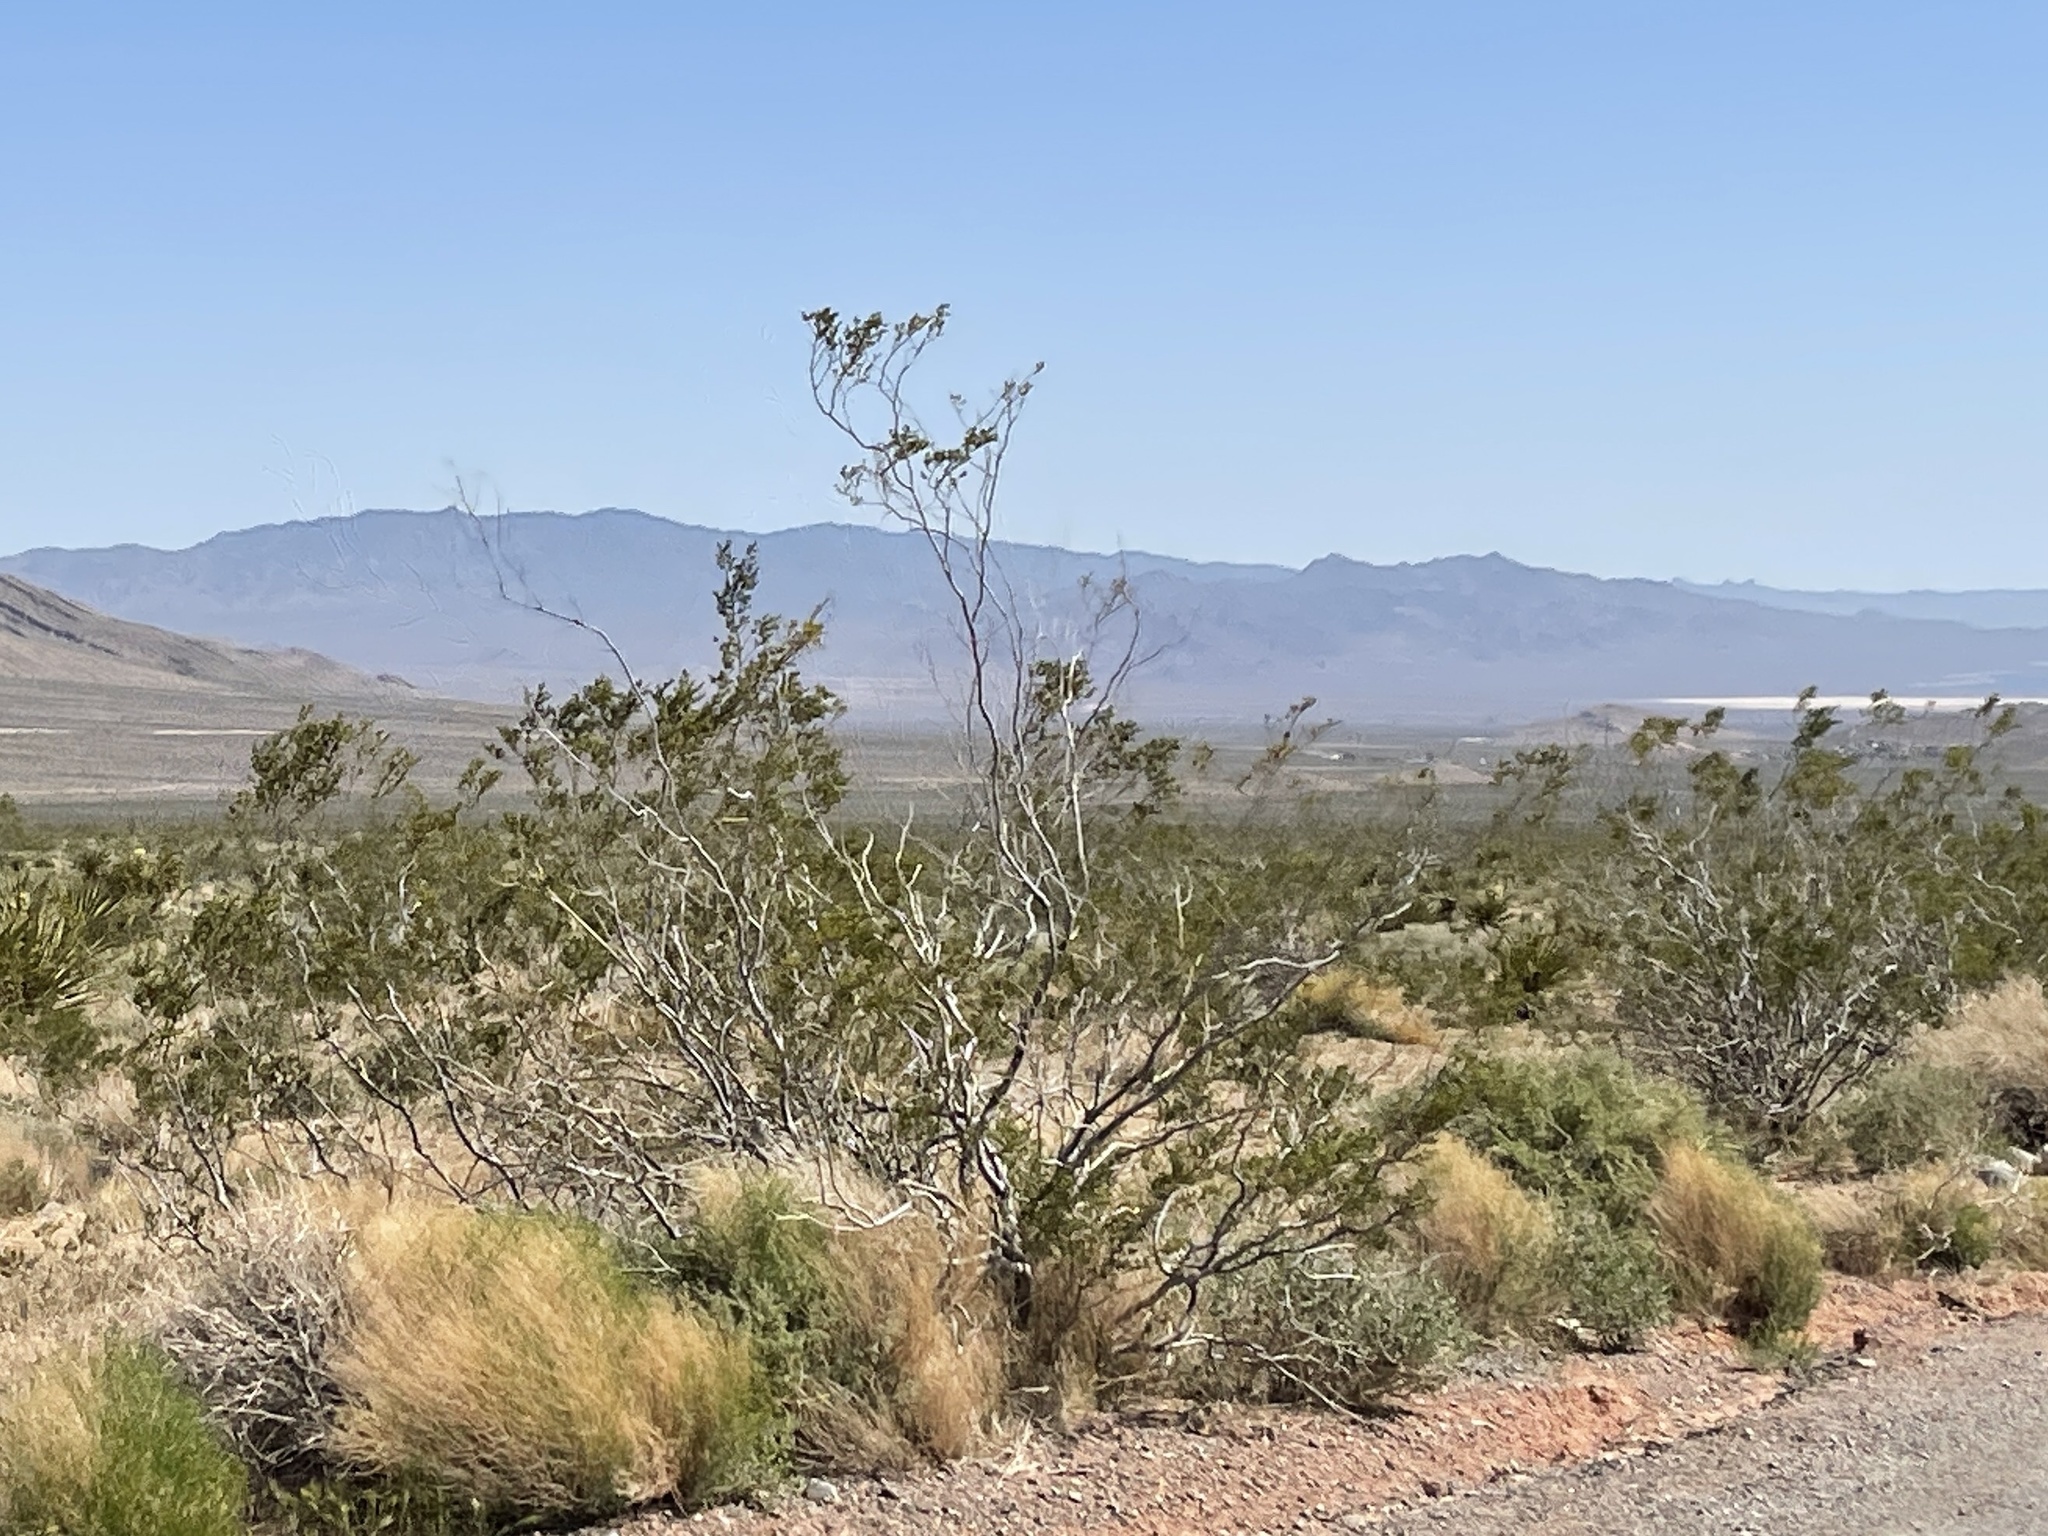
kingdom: Plantae
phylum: Tracheophyta
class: Magnoliopsida
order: Zygophyllales
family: Zygophyllaceae
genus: Larrea
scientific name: Larrea tridentata
